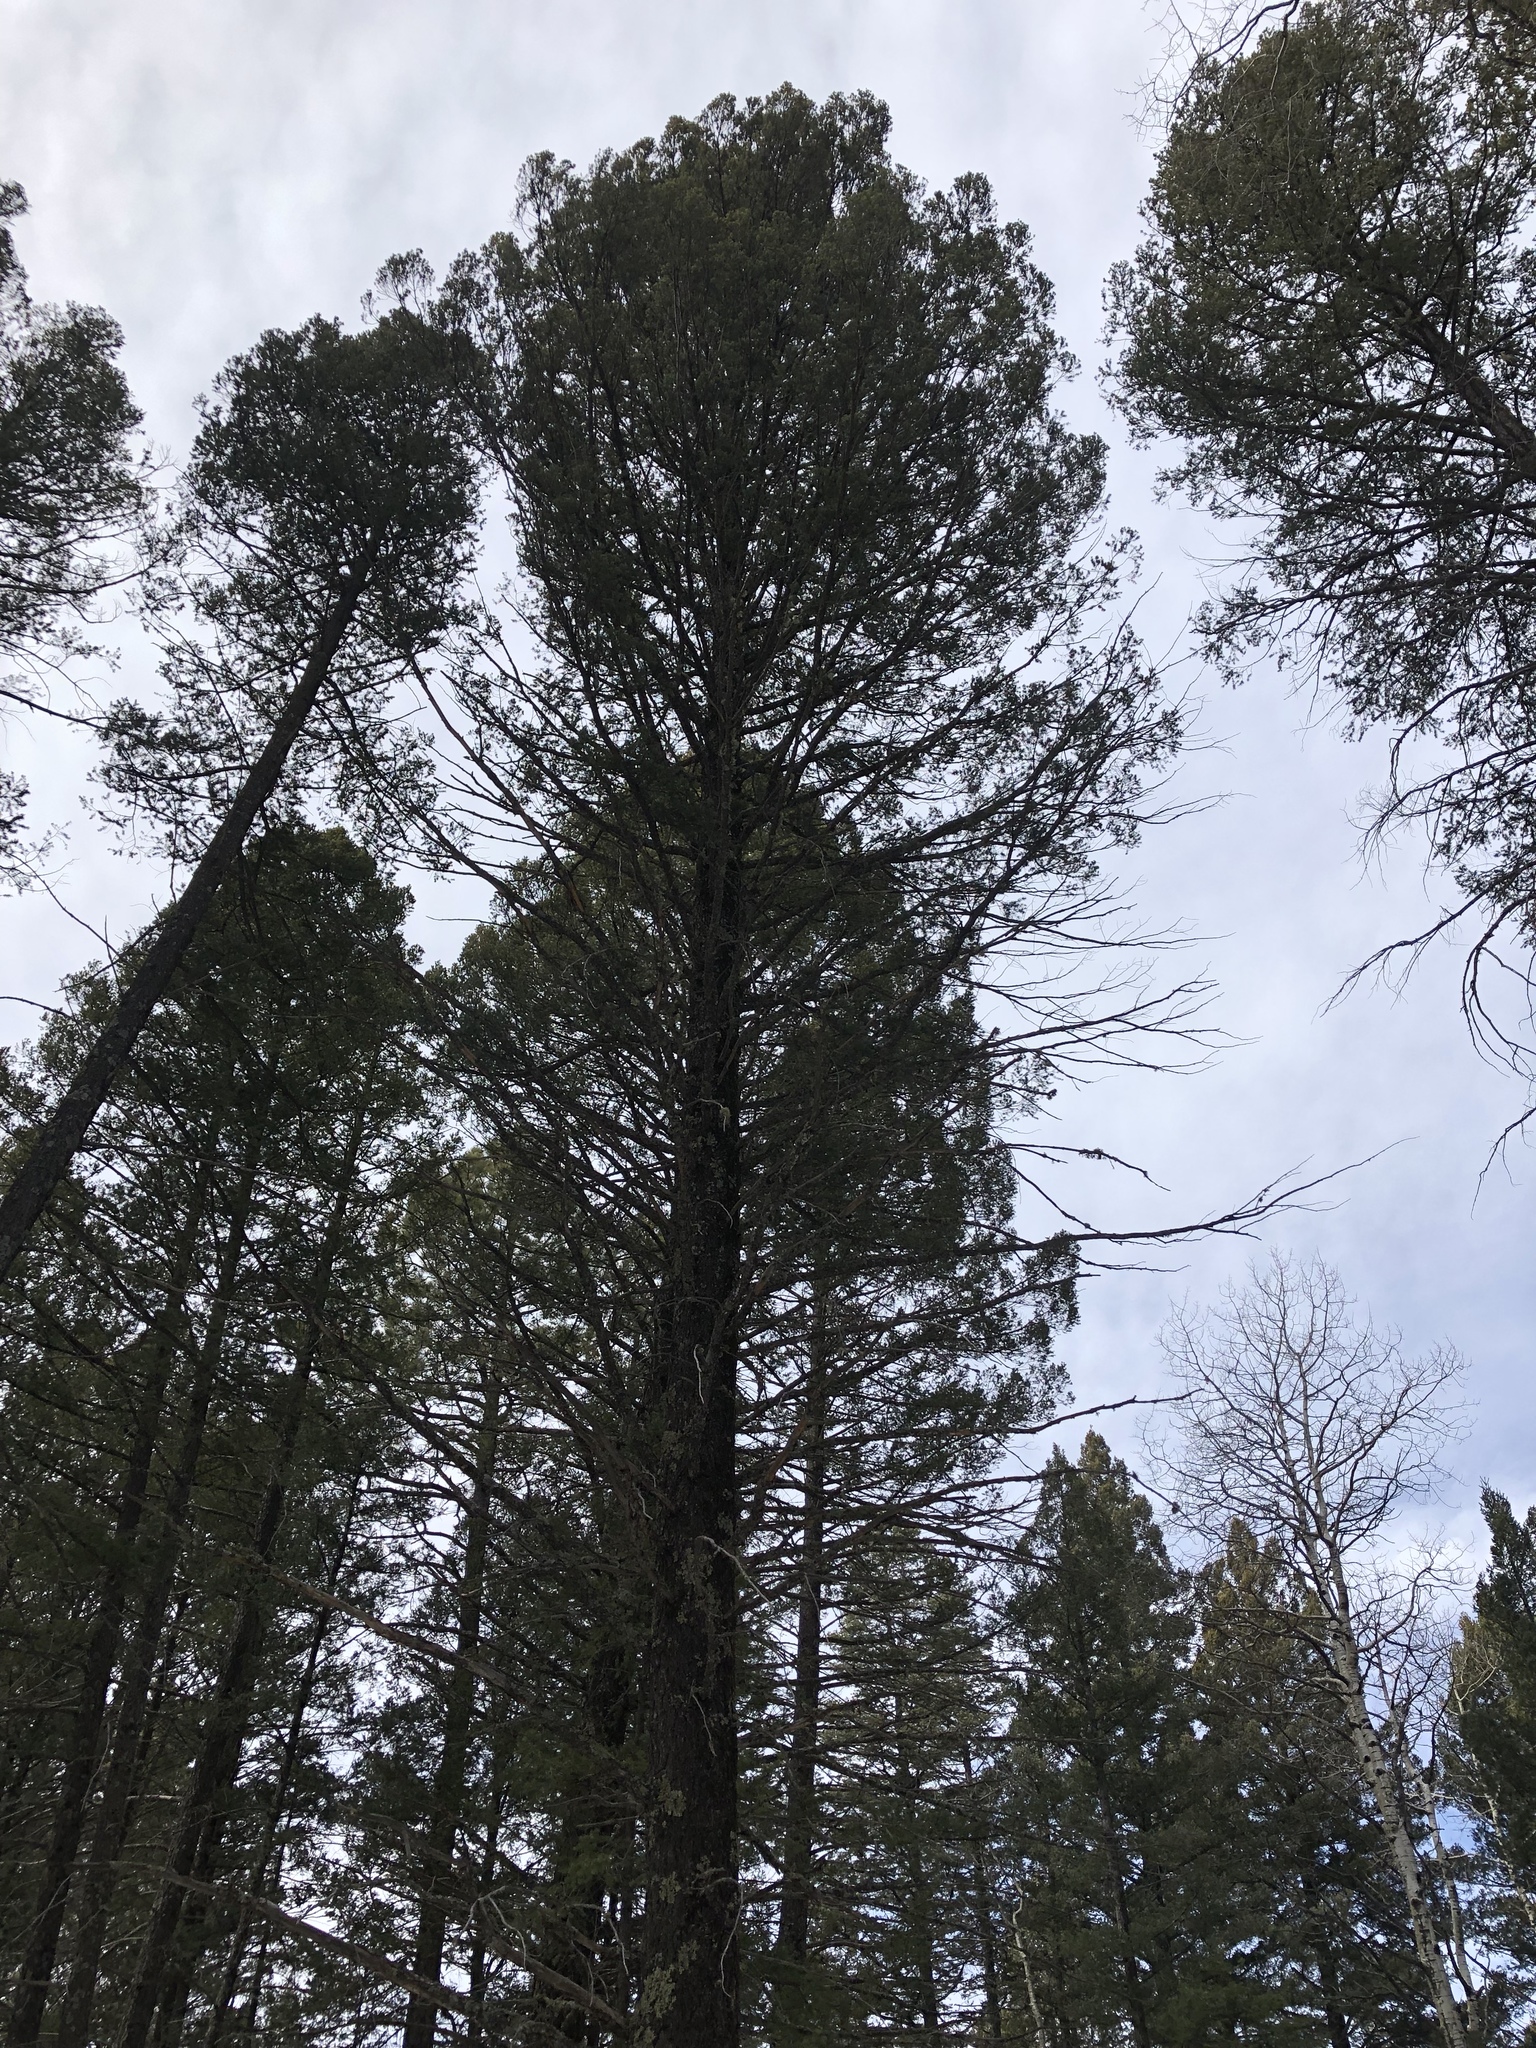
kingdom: Plantae
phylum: Tracheophyta
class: Pinopsida
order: Pinales
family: Pinaceae
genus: Pseudotsuga
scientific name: Pseudotsuga menziesii
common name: Douglas fir
